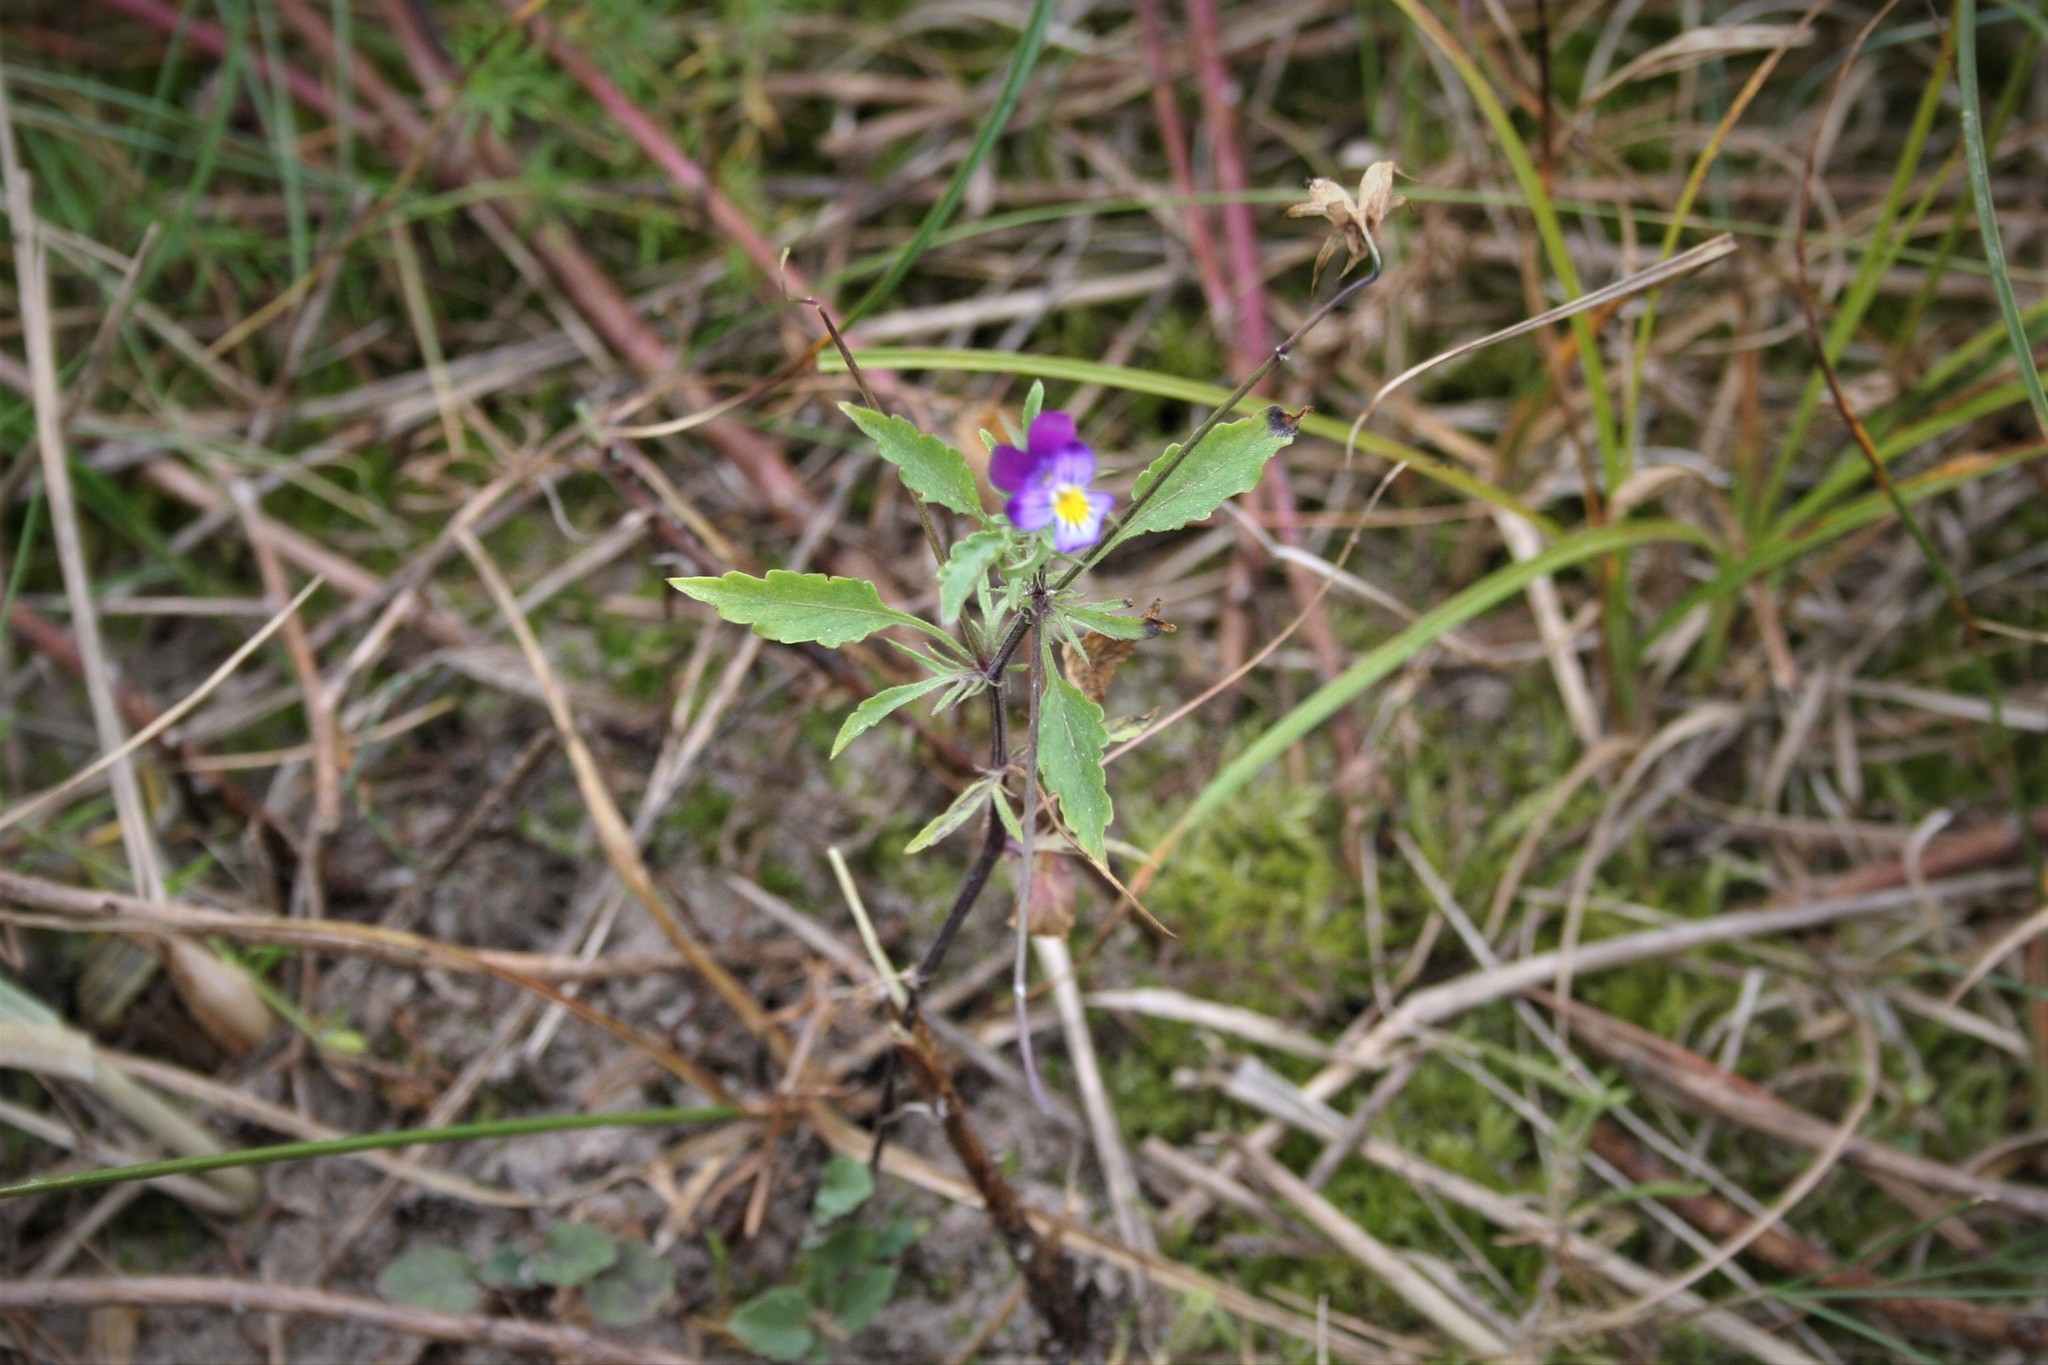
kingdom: Plantae
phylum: Tracheophyta
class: Magnoliopsida
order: Malpighiales
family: Violaceae
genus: Viola
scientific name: Viola tricolor
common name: Pansy
